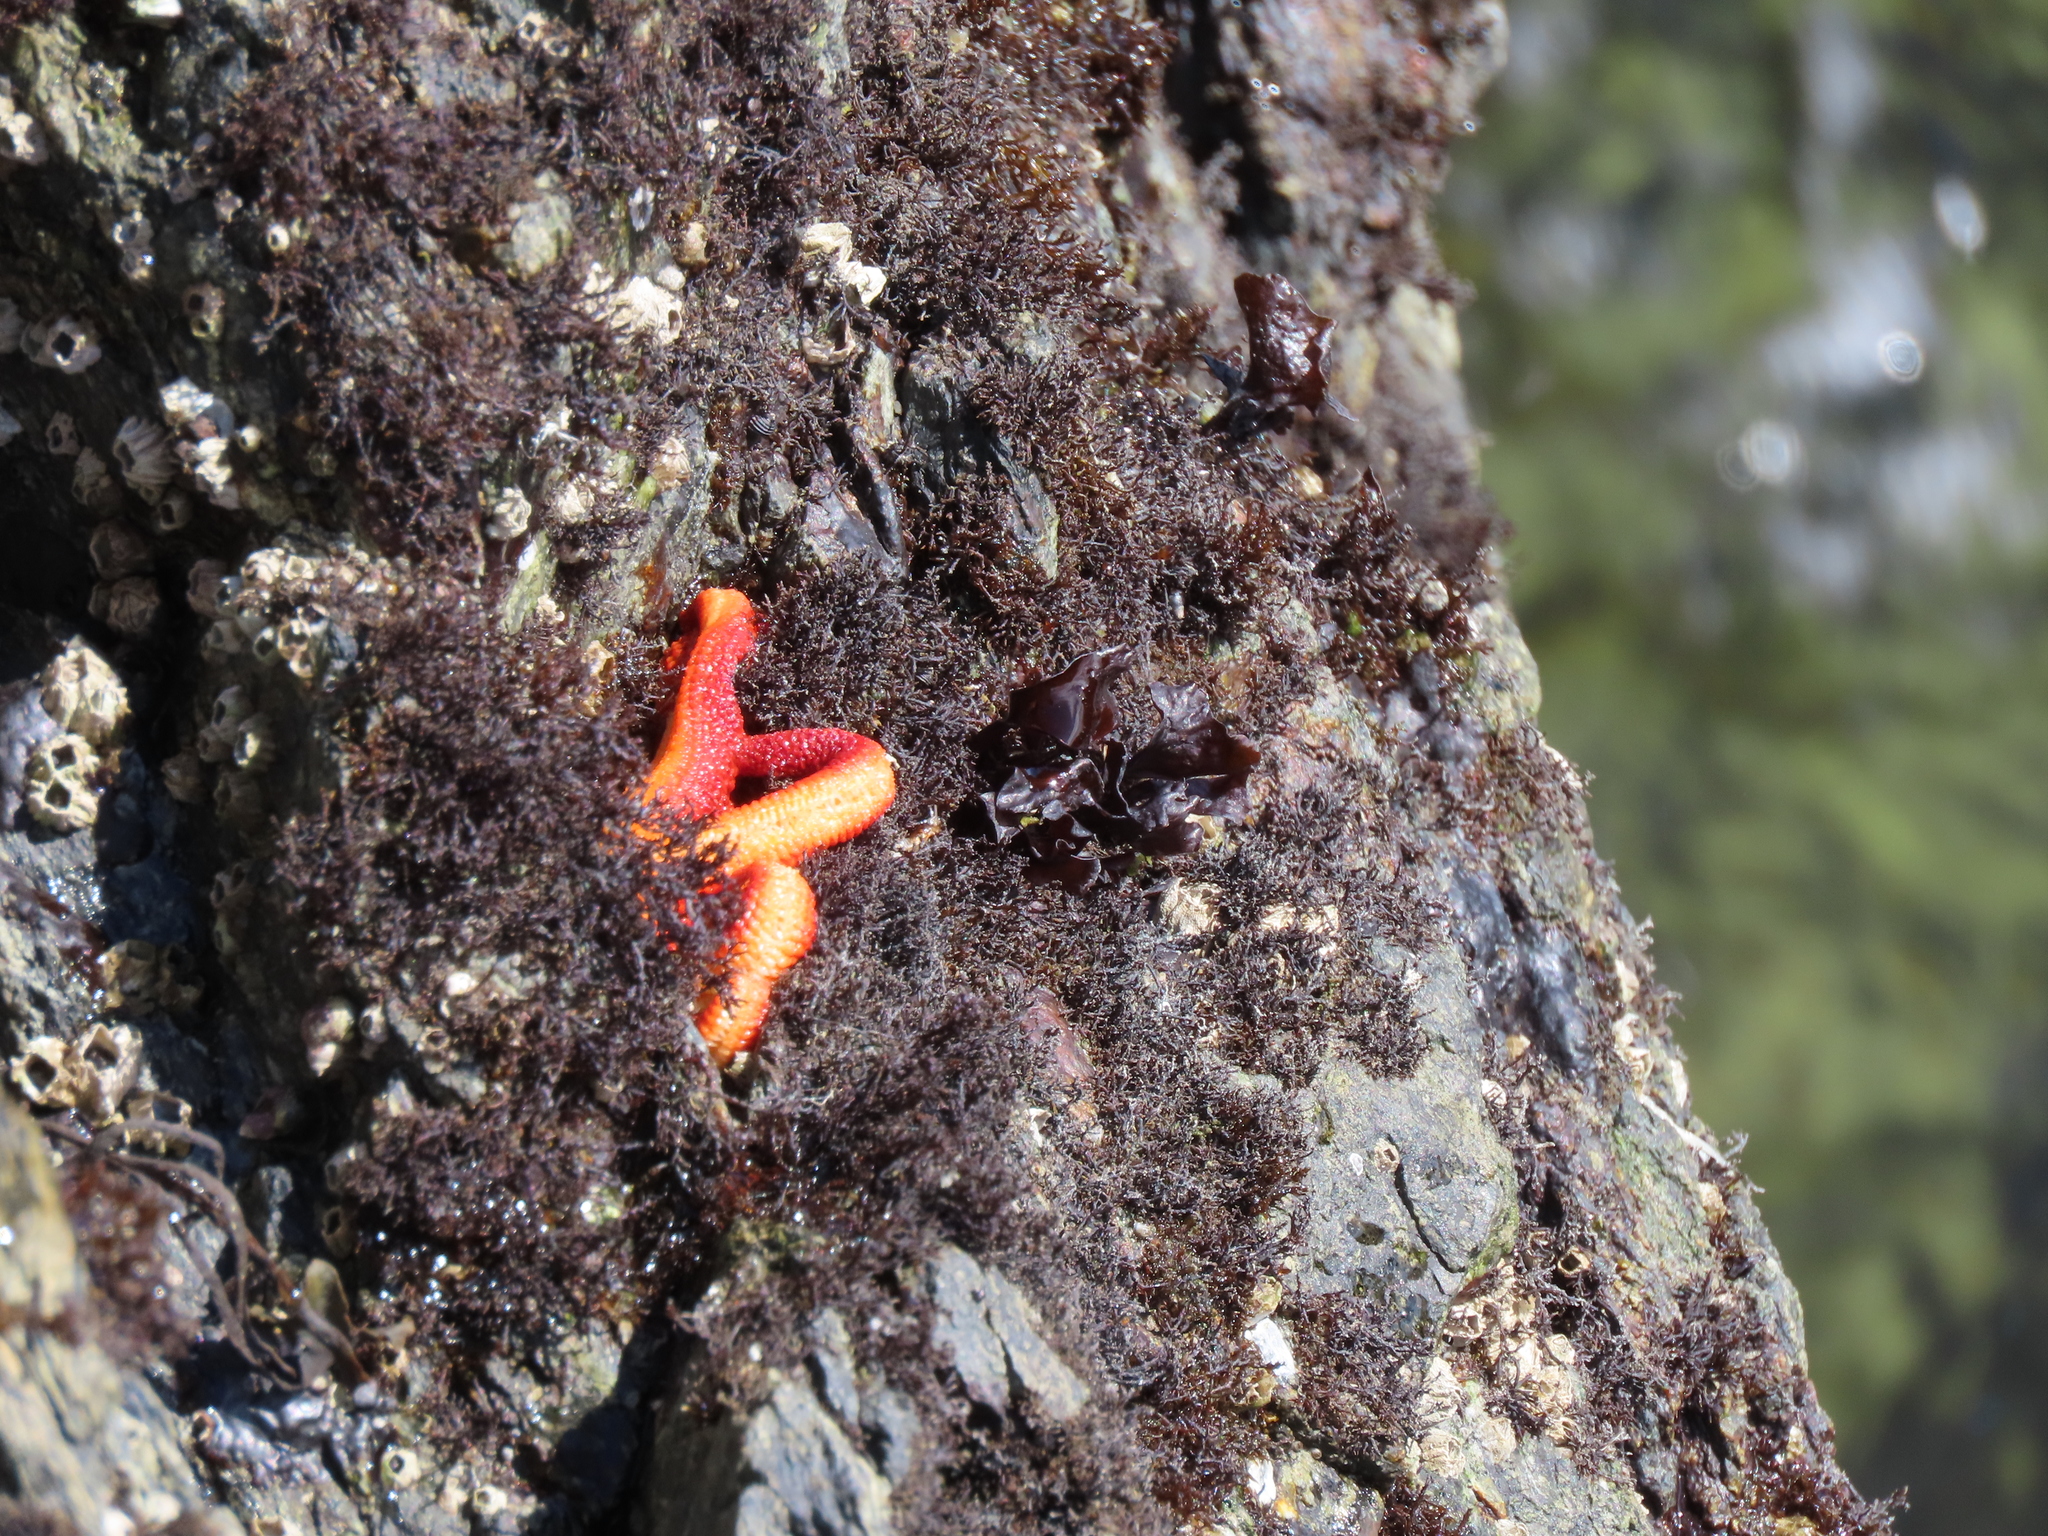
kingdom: Animalia
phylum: Echinodermata
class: Asteroidea
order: Spinulosida
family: Echinasteridae
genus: Henricia
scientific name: Henricia
